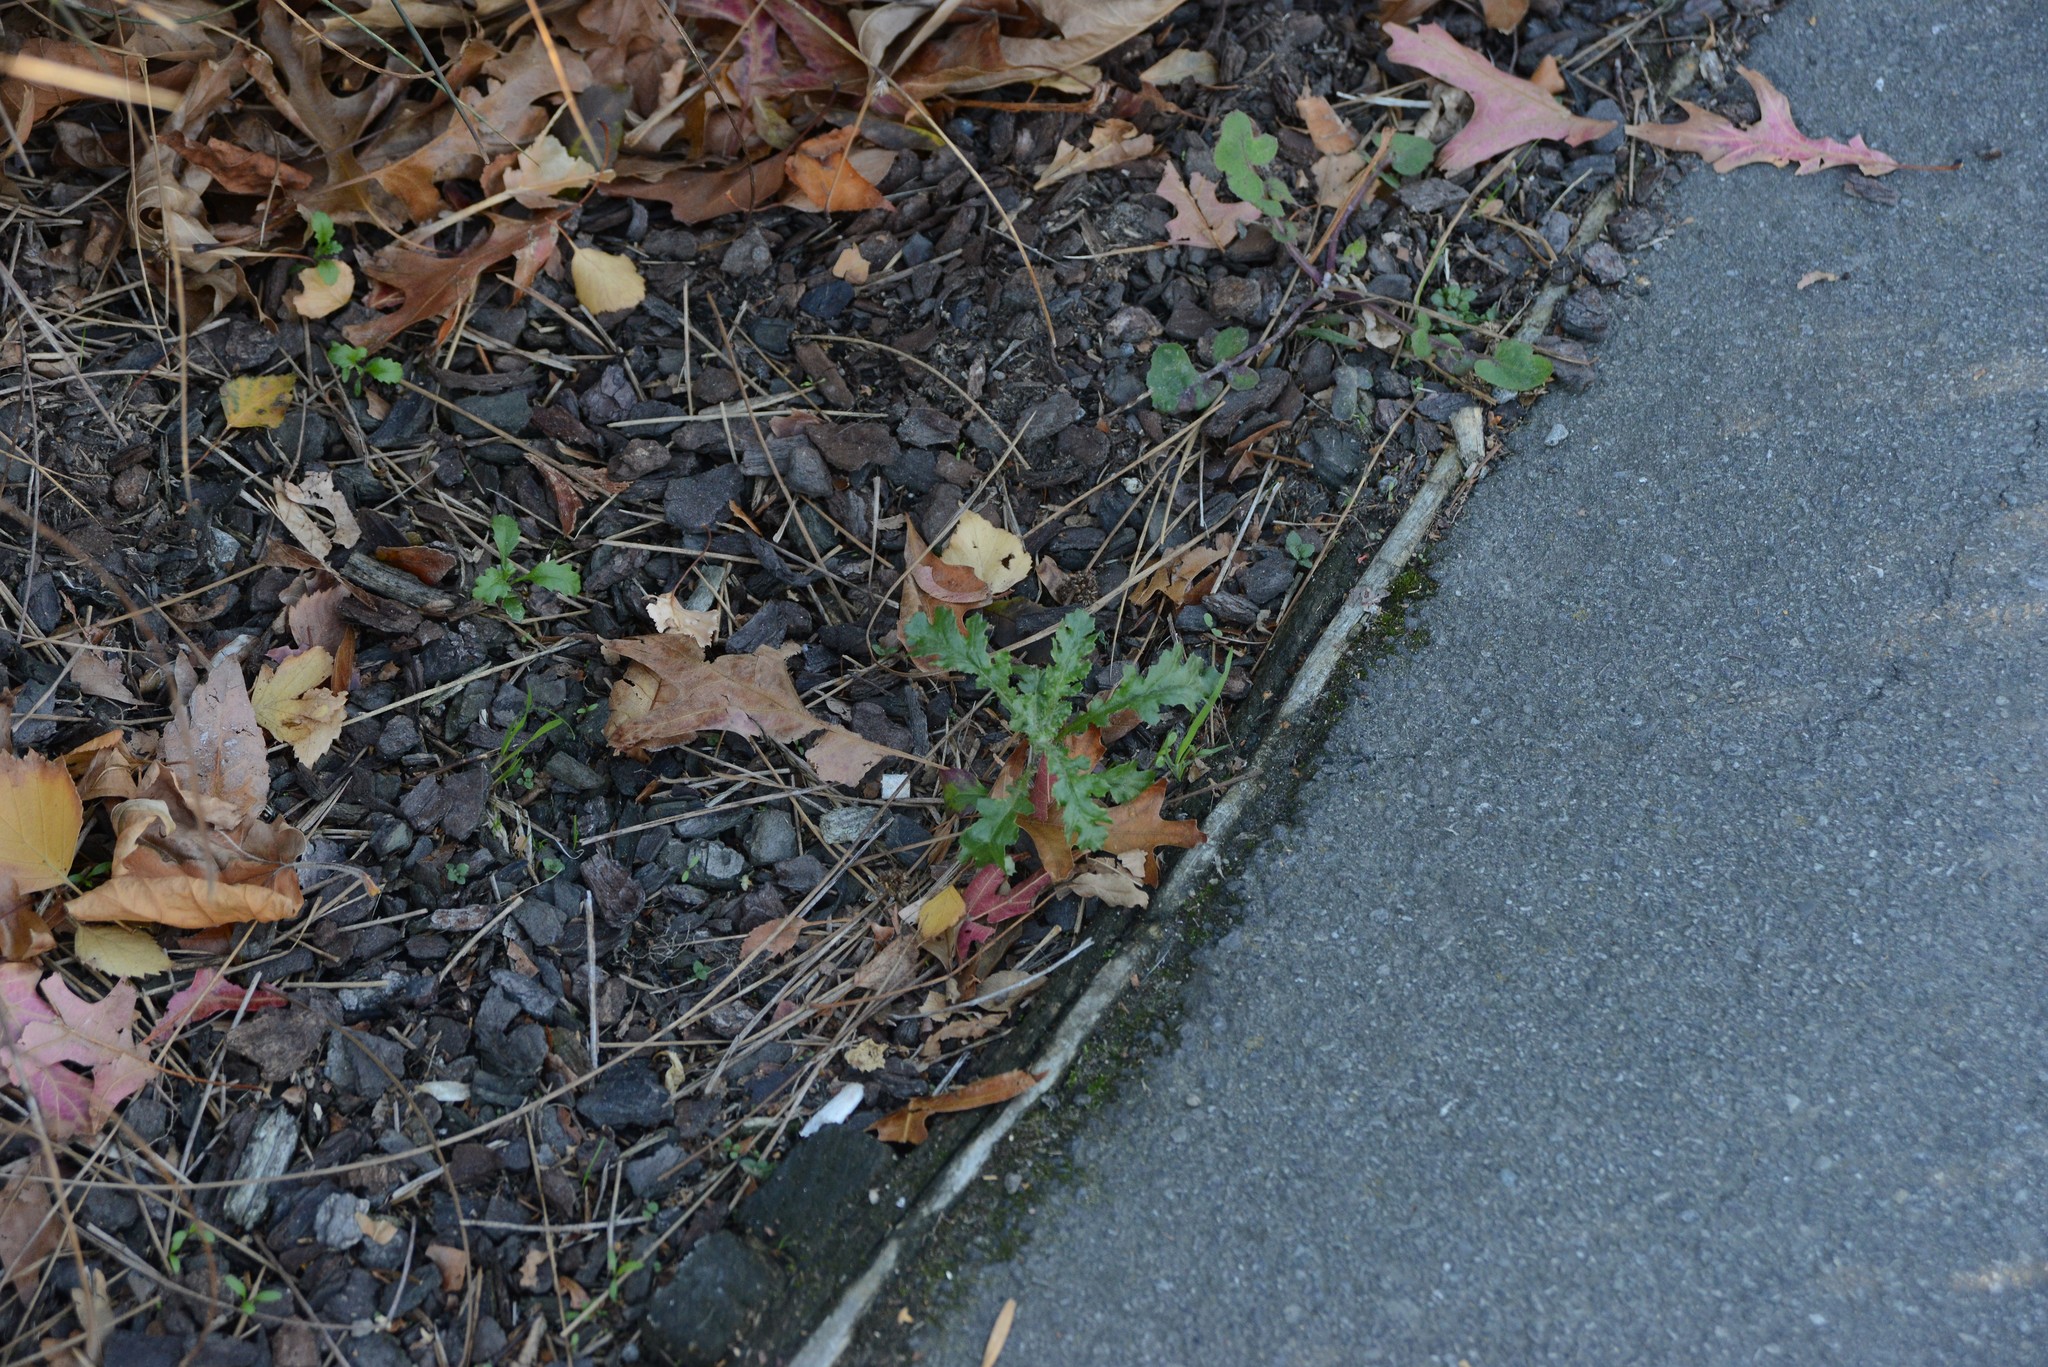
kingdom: Plantae
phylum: Tracheophyta
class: Magnoliopsida
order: Asterales
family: Asteraceae
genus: Senecio
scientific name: Senecio vulgaris
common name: Old-man-in-the-spring
